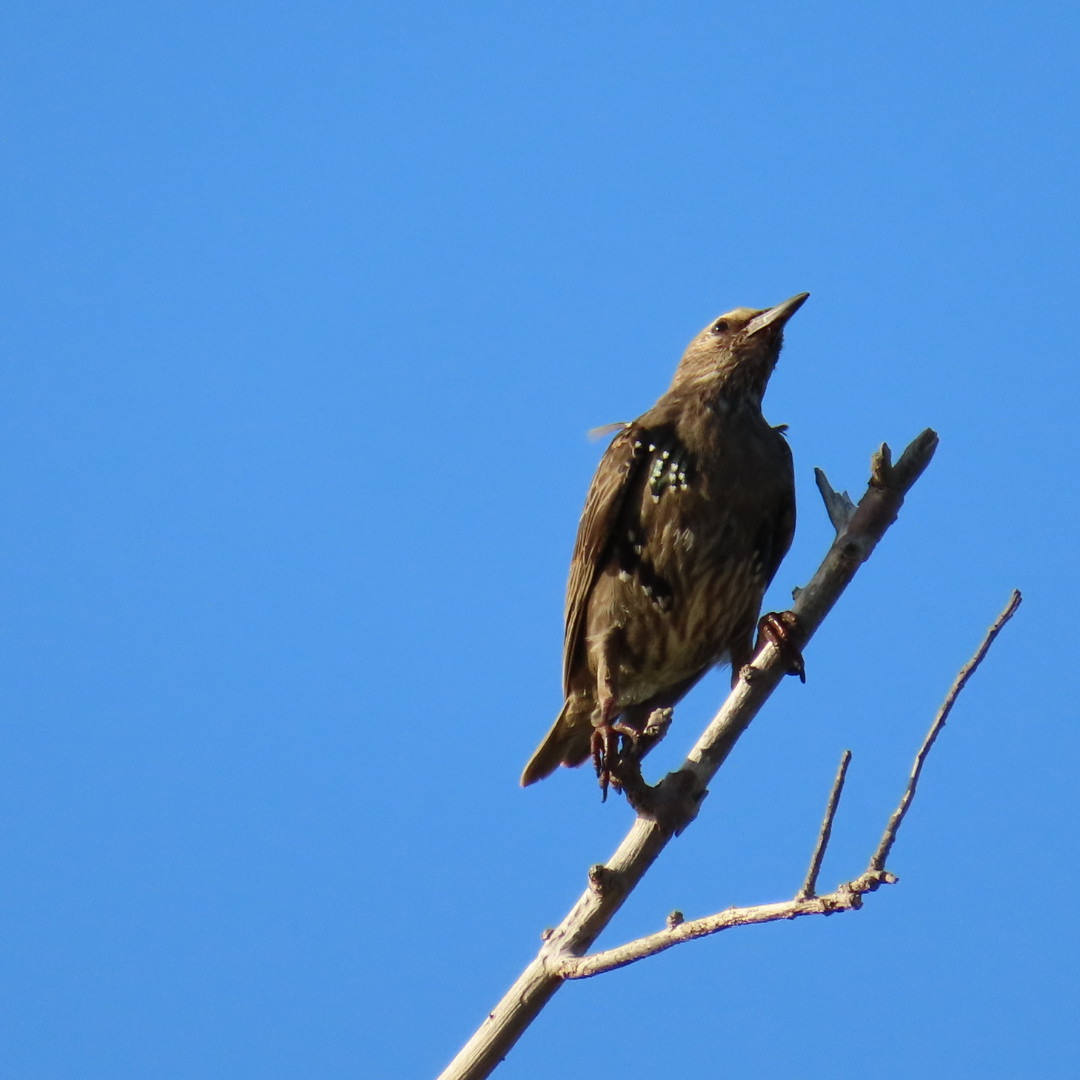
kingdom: Animalia
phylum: Chordata
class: Aves
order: Passeriformes
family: Sturnidae
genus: Sturnus
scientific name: Sturnus vulgaris
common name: Common starling
